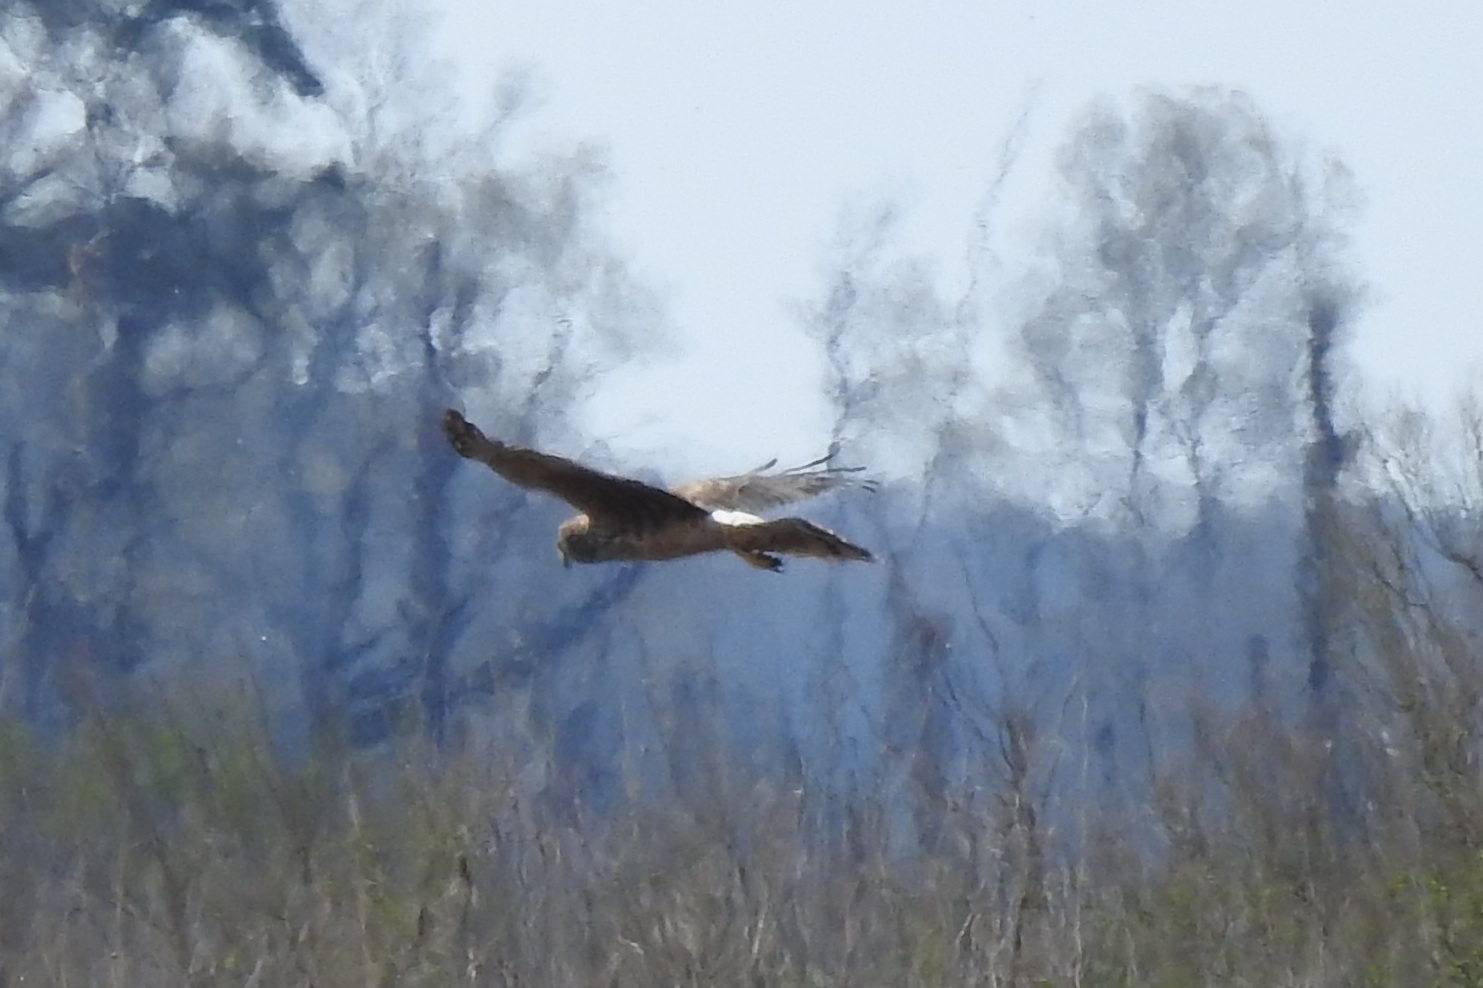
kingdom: Animalia
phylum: Chordata
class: Aves
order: Accipitriformes
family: Accipitridae
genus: Circus
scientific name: Circus cyaneus
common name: Hen harrier
